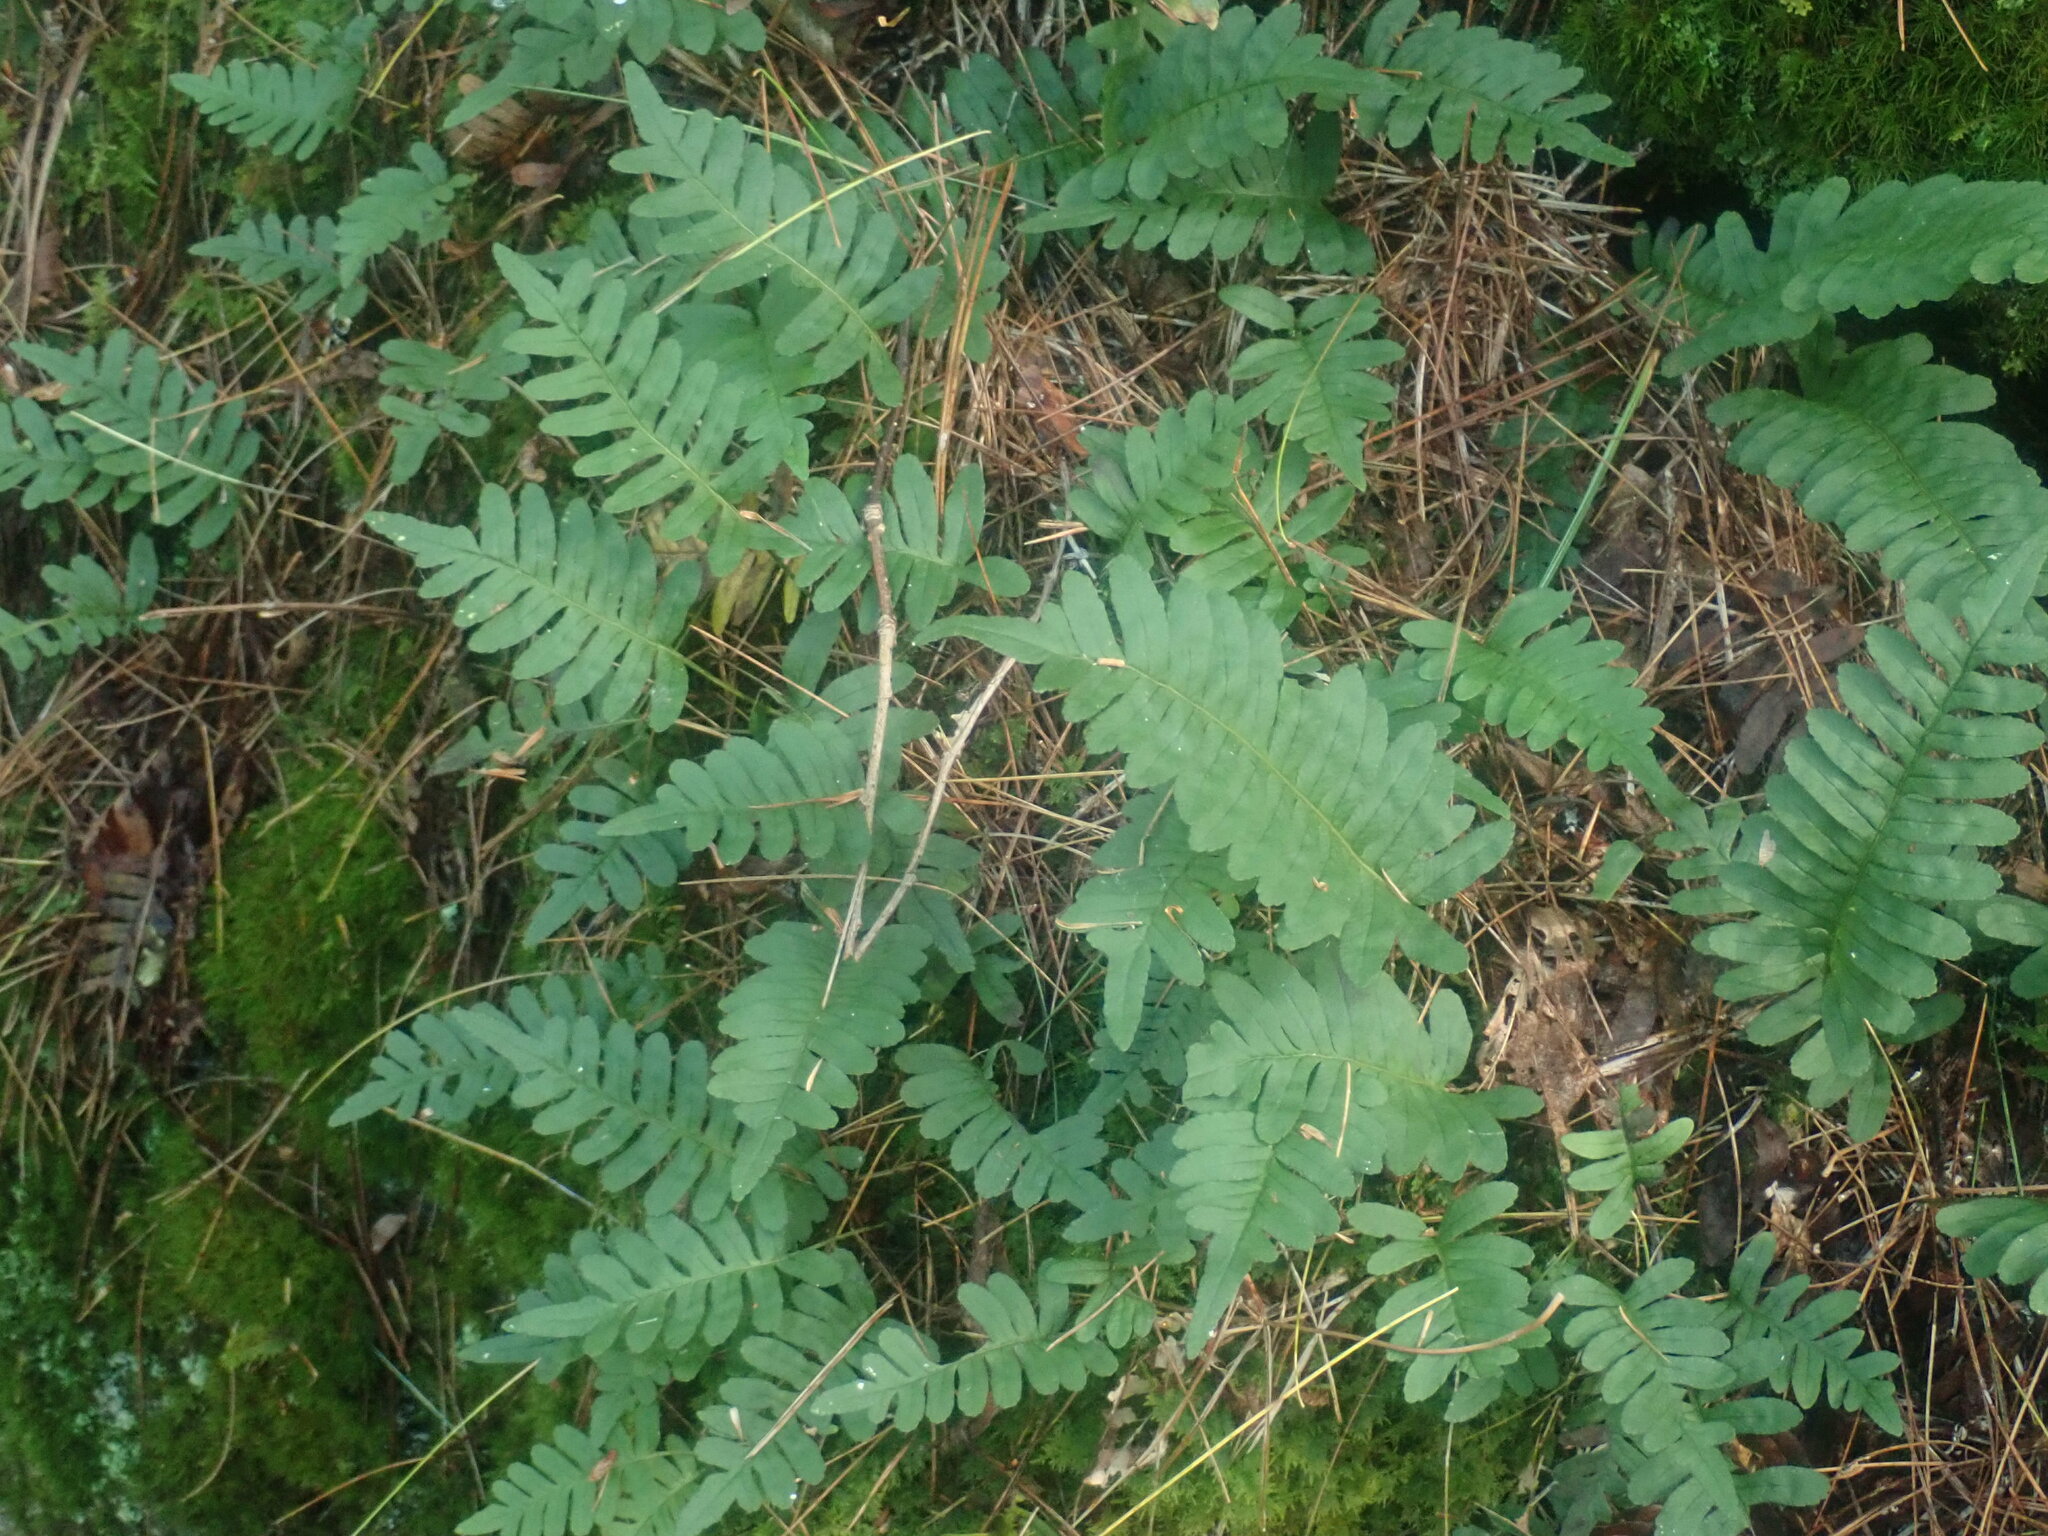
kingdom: Plantae
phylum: Tracheophyta
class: Polypodiopsida
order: Polypodiales
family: Polypodiaceae
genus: Polypodium
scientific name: Polypodium
